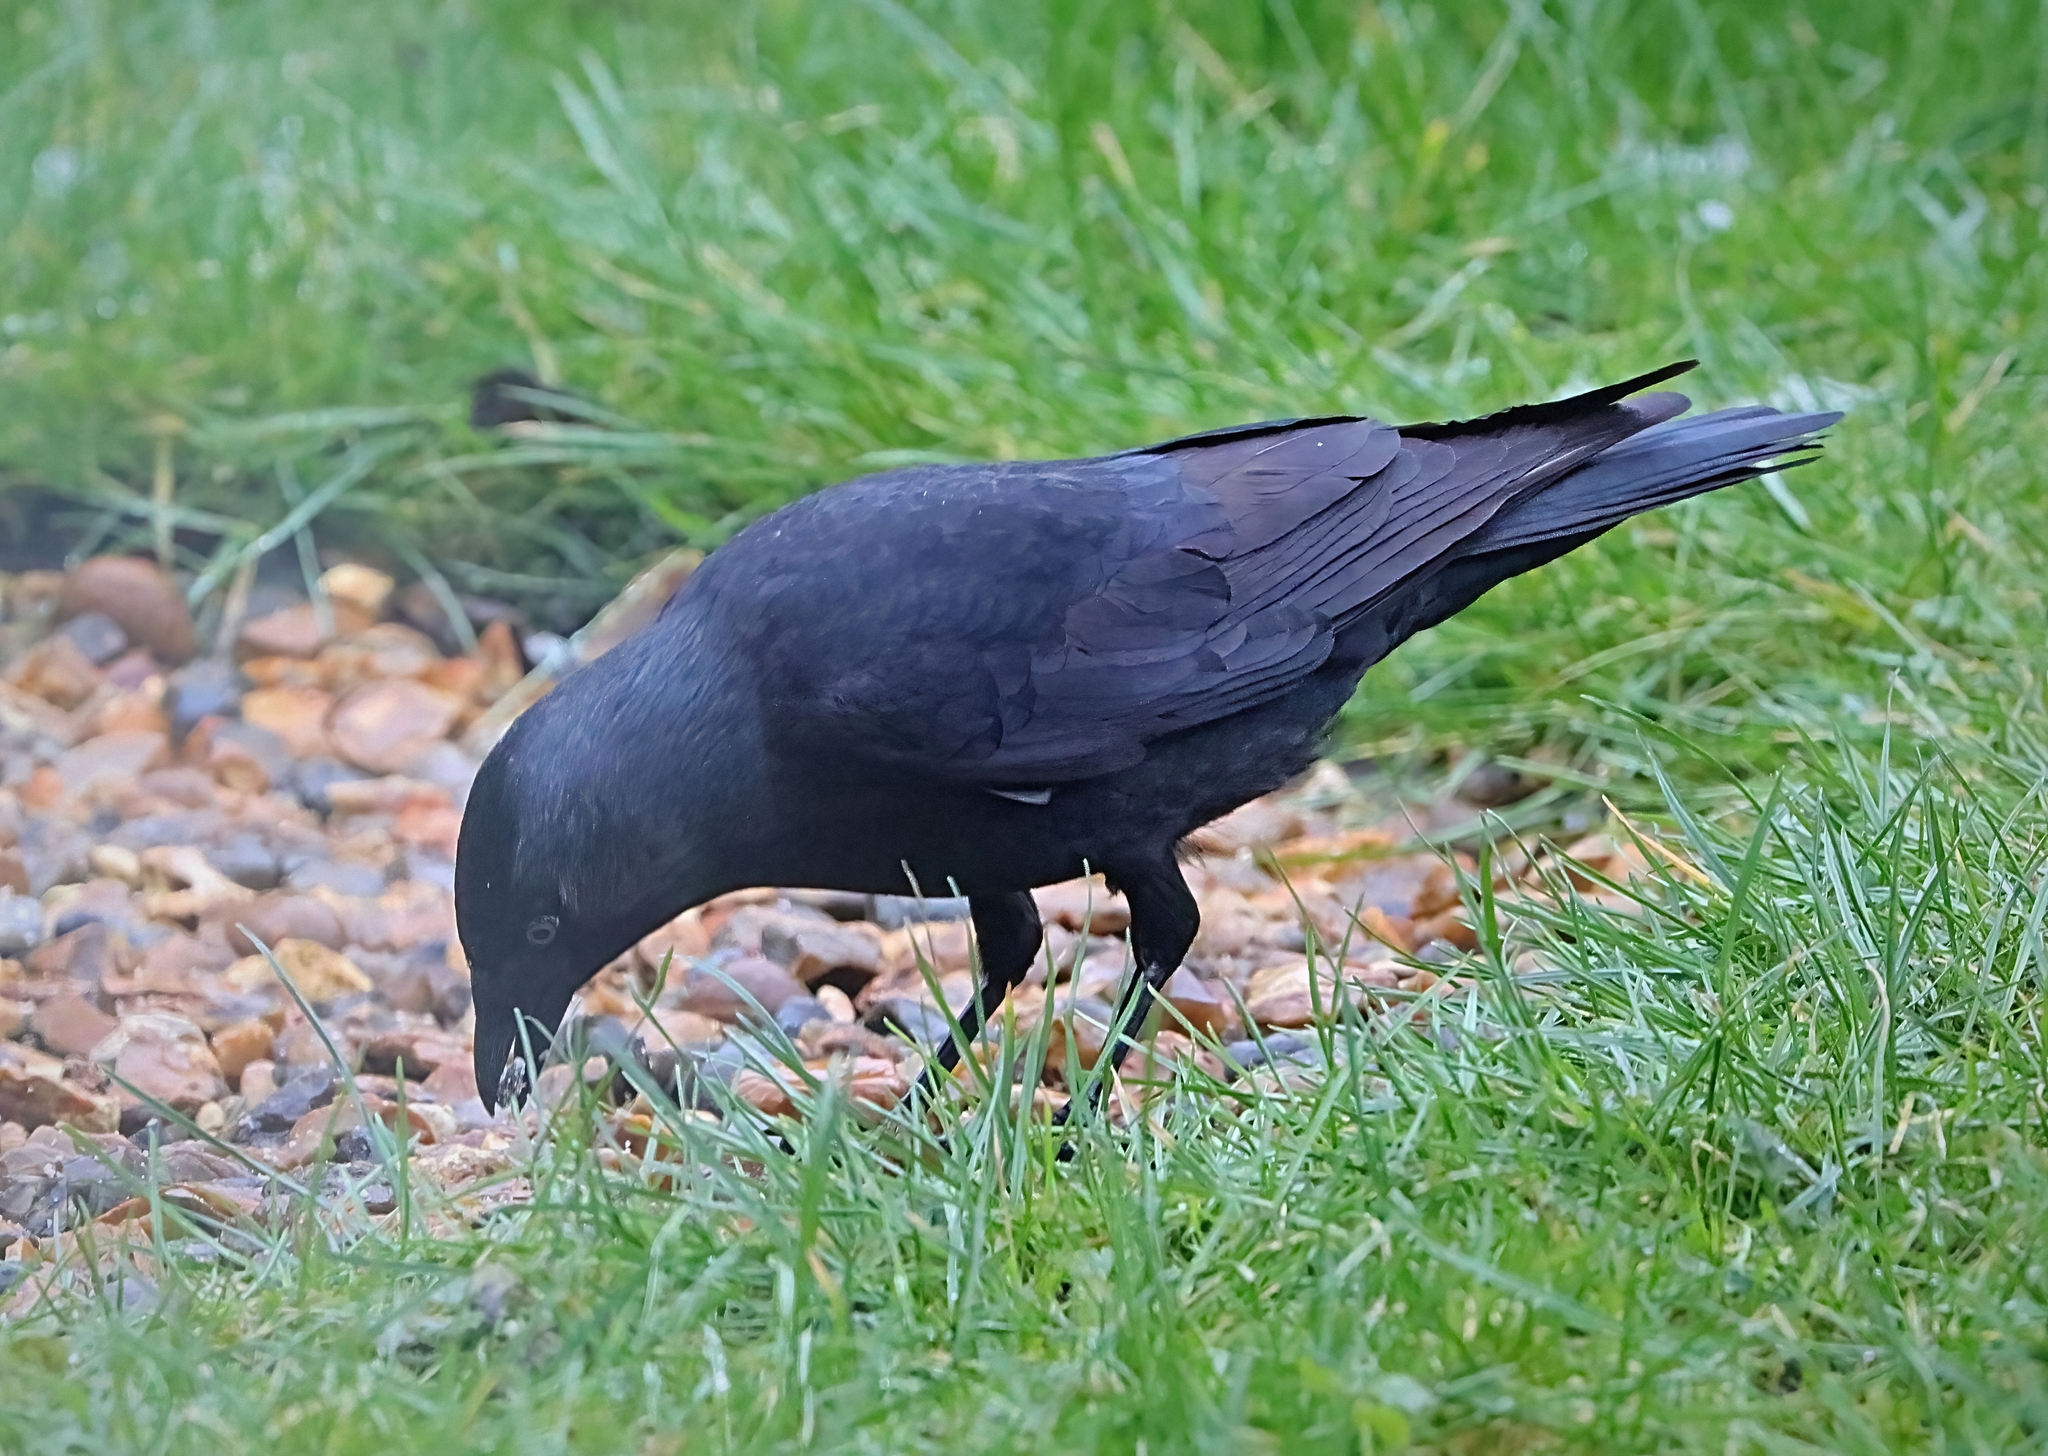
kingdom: Animalia
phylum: Chordata
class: Aves
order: Passeriformes
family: Corvidae
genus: Coloeus
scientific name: Coloeus monedula
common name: Western jackdaw
